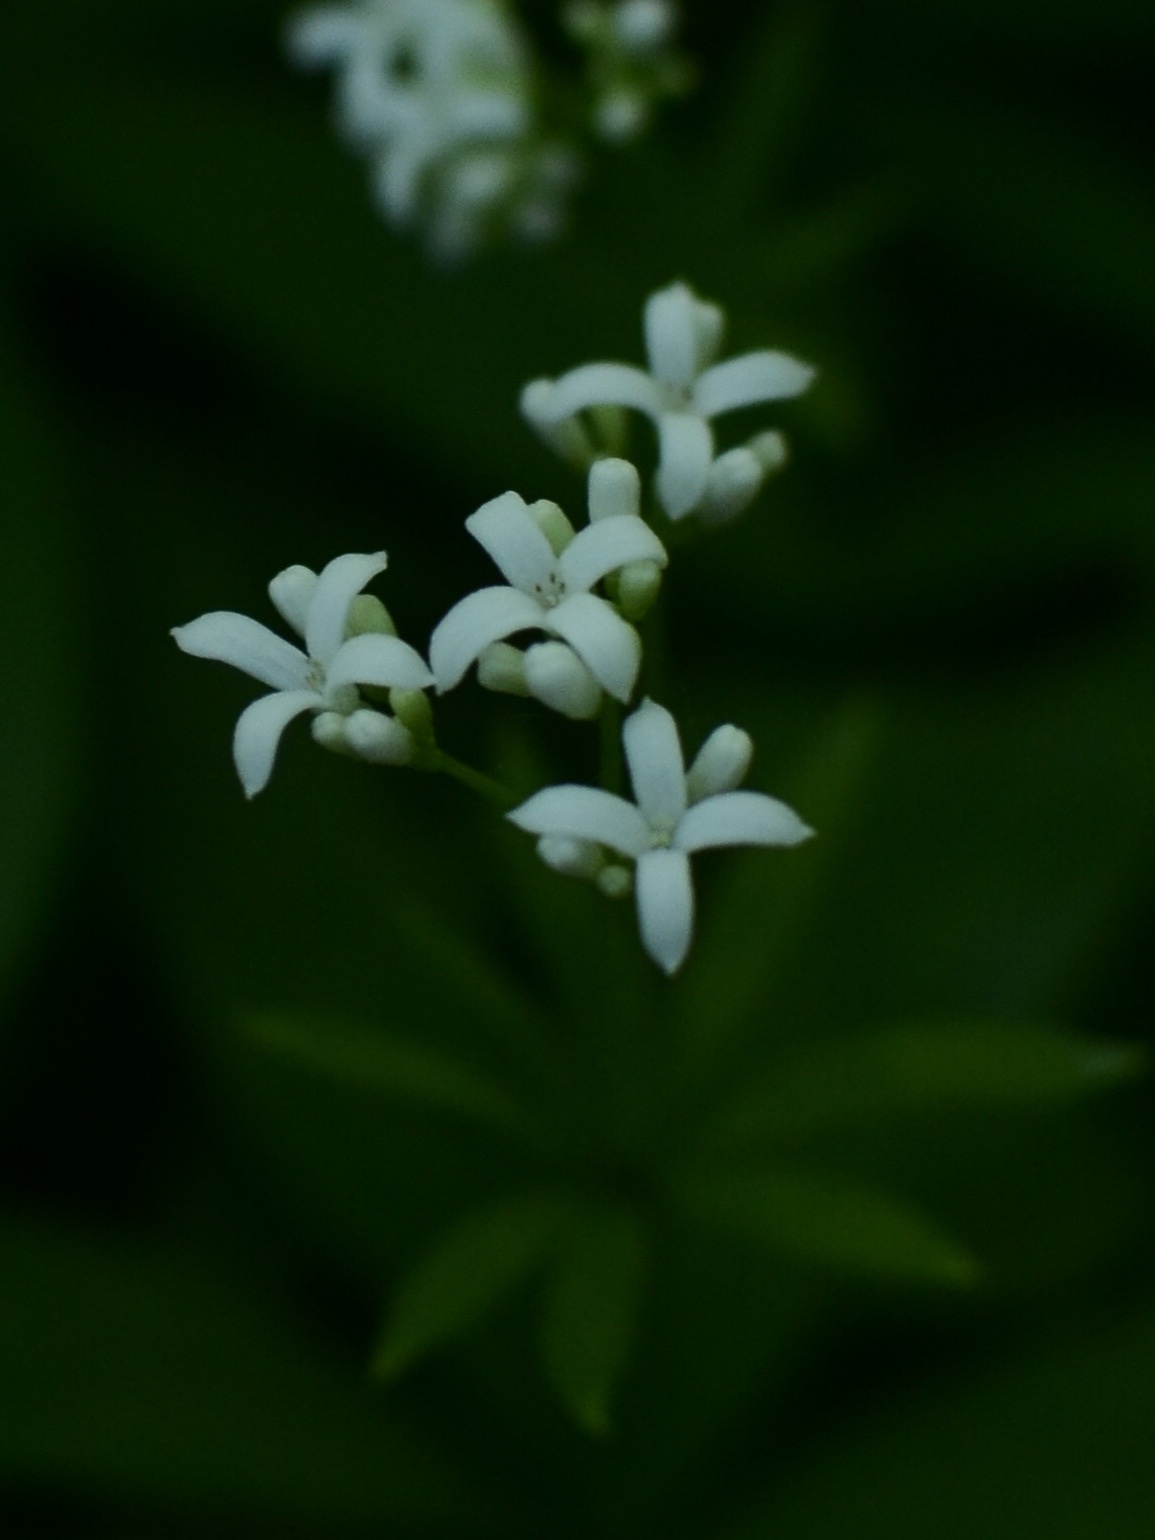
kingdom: Plantae
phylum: Tracheophyta
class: Magnoliopsida
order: Gentianales
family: Rubiaceae
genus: Galium
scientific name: Galium odoratum
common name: Sweet woodruff
